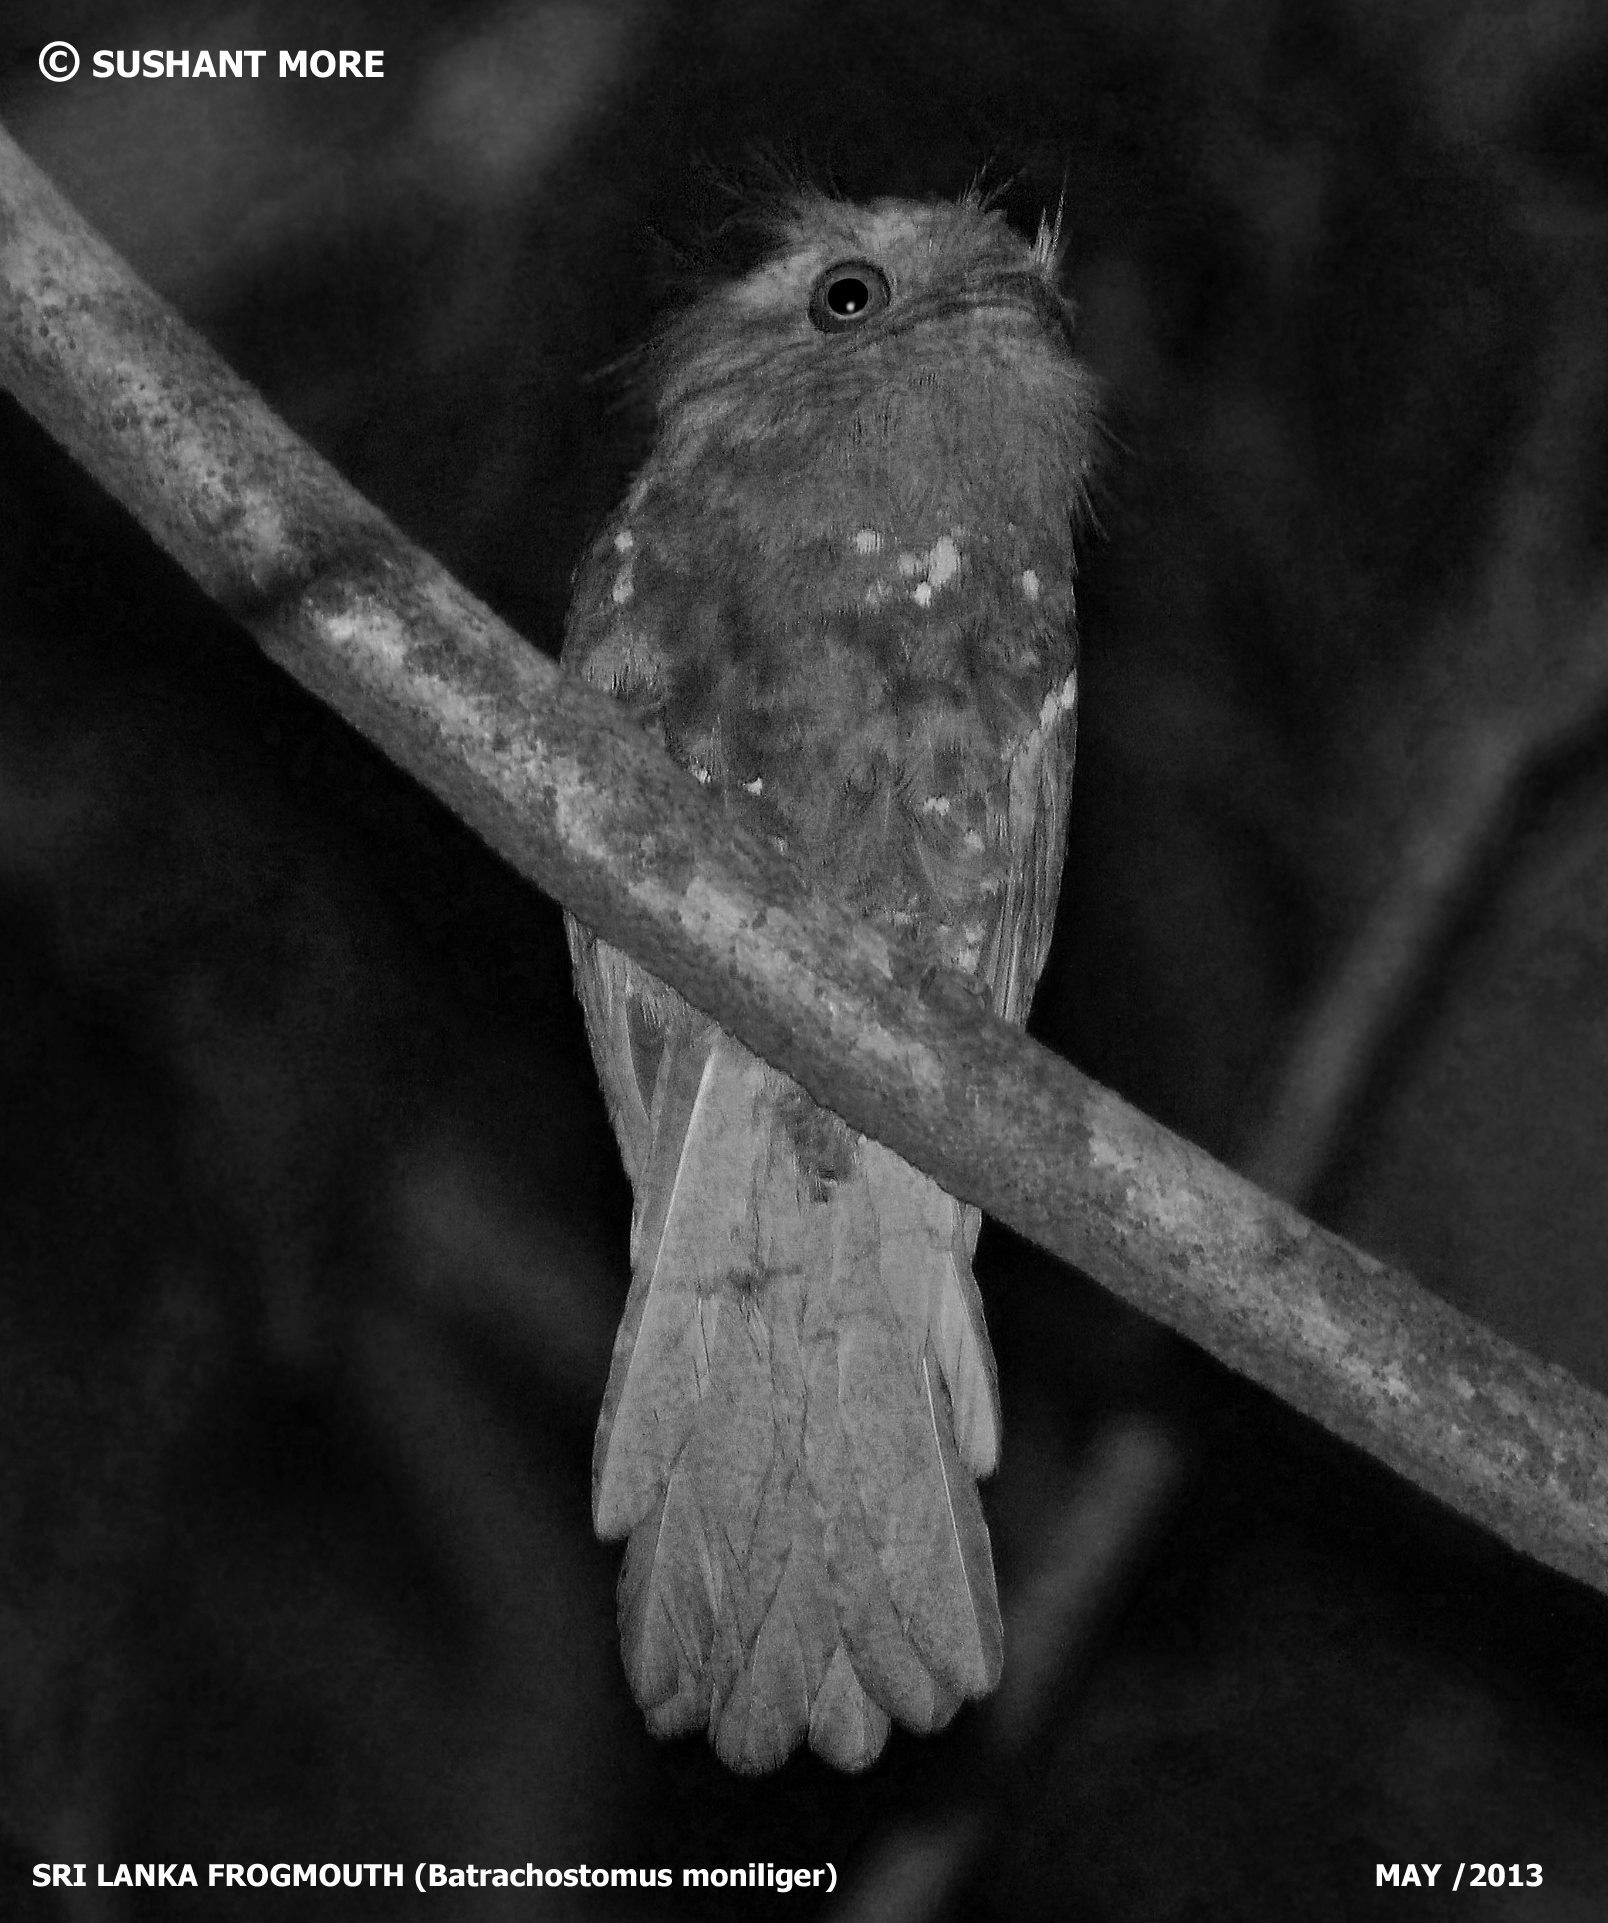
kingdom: Animalia
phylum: Chordata
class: Aves
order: Caprimulgiformes
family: Podargidae
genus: Batrachostomus
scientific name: Batrachostomus moniliger
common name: Sri lanka frogmouth
